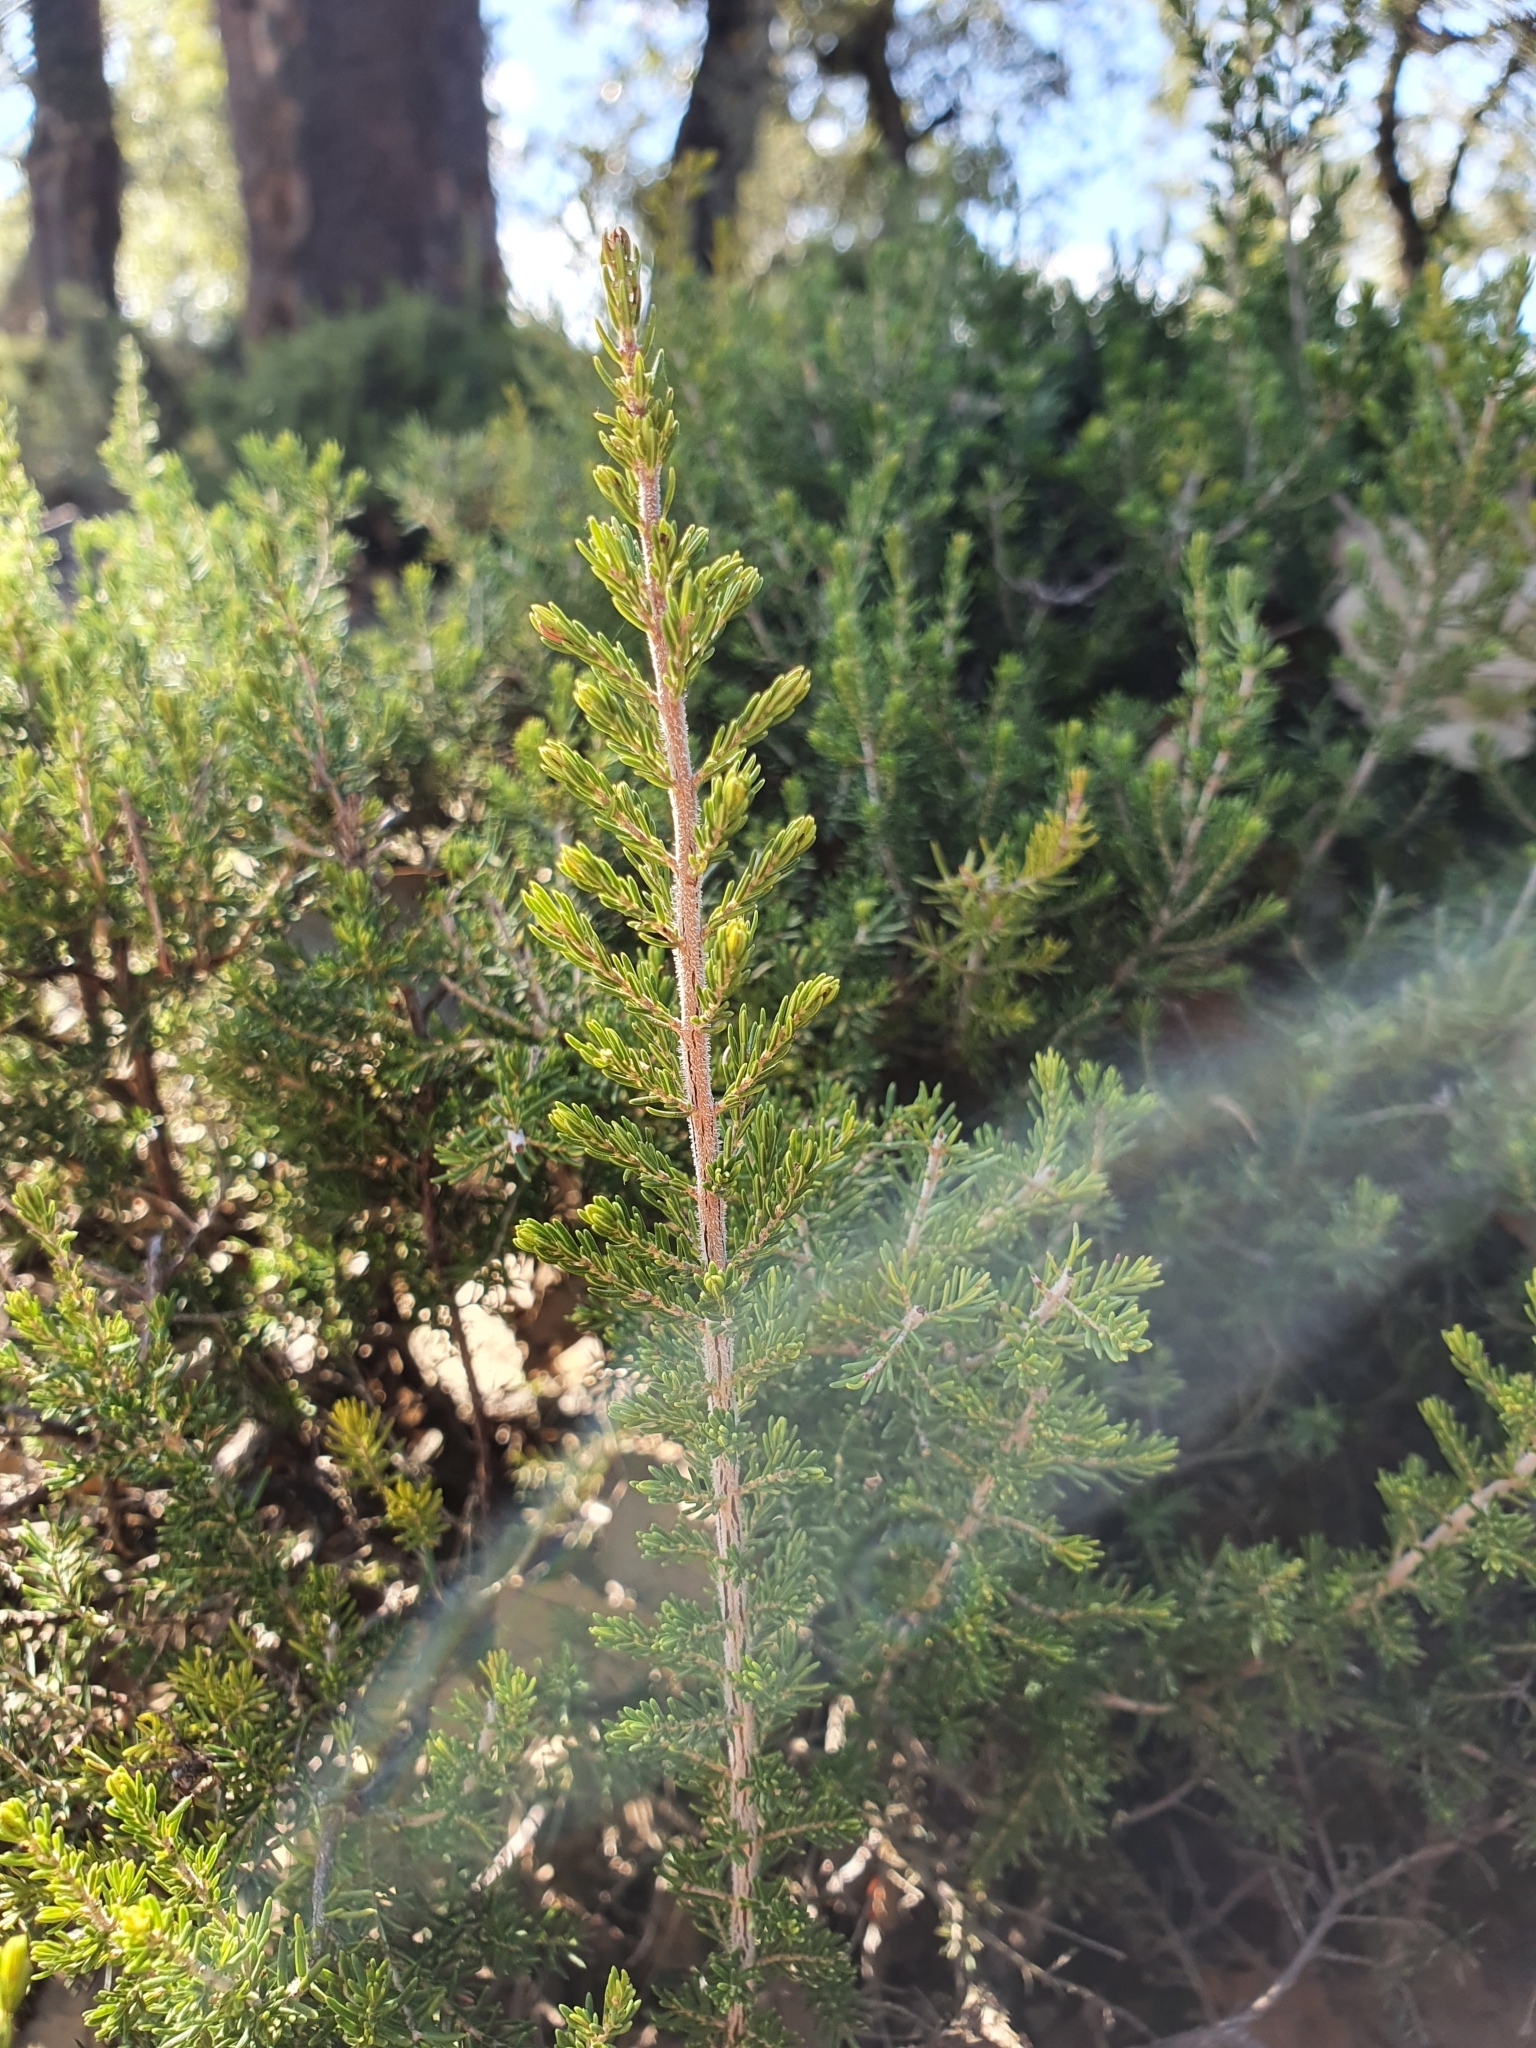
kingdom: Plantae
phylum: Tracheophyta
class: Magnoliopsida
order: Ericales
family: Ericaceae
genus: Erica
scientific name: Erica arborea
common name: Tree heath
